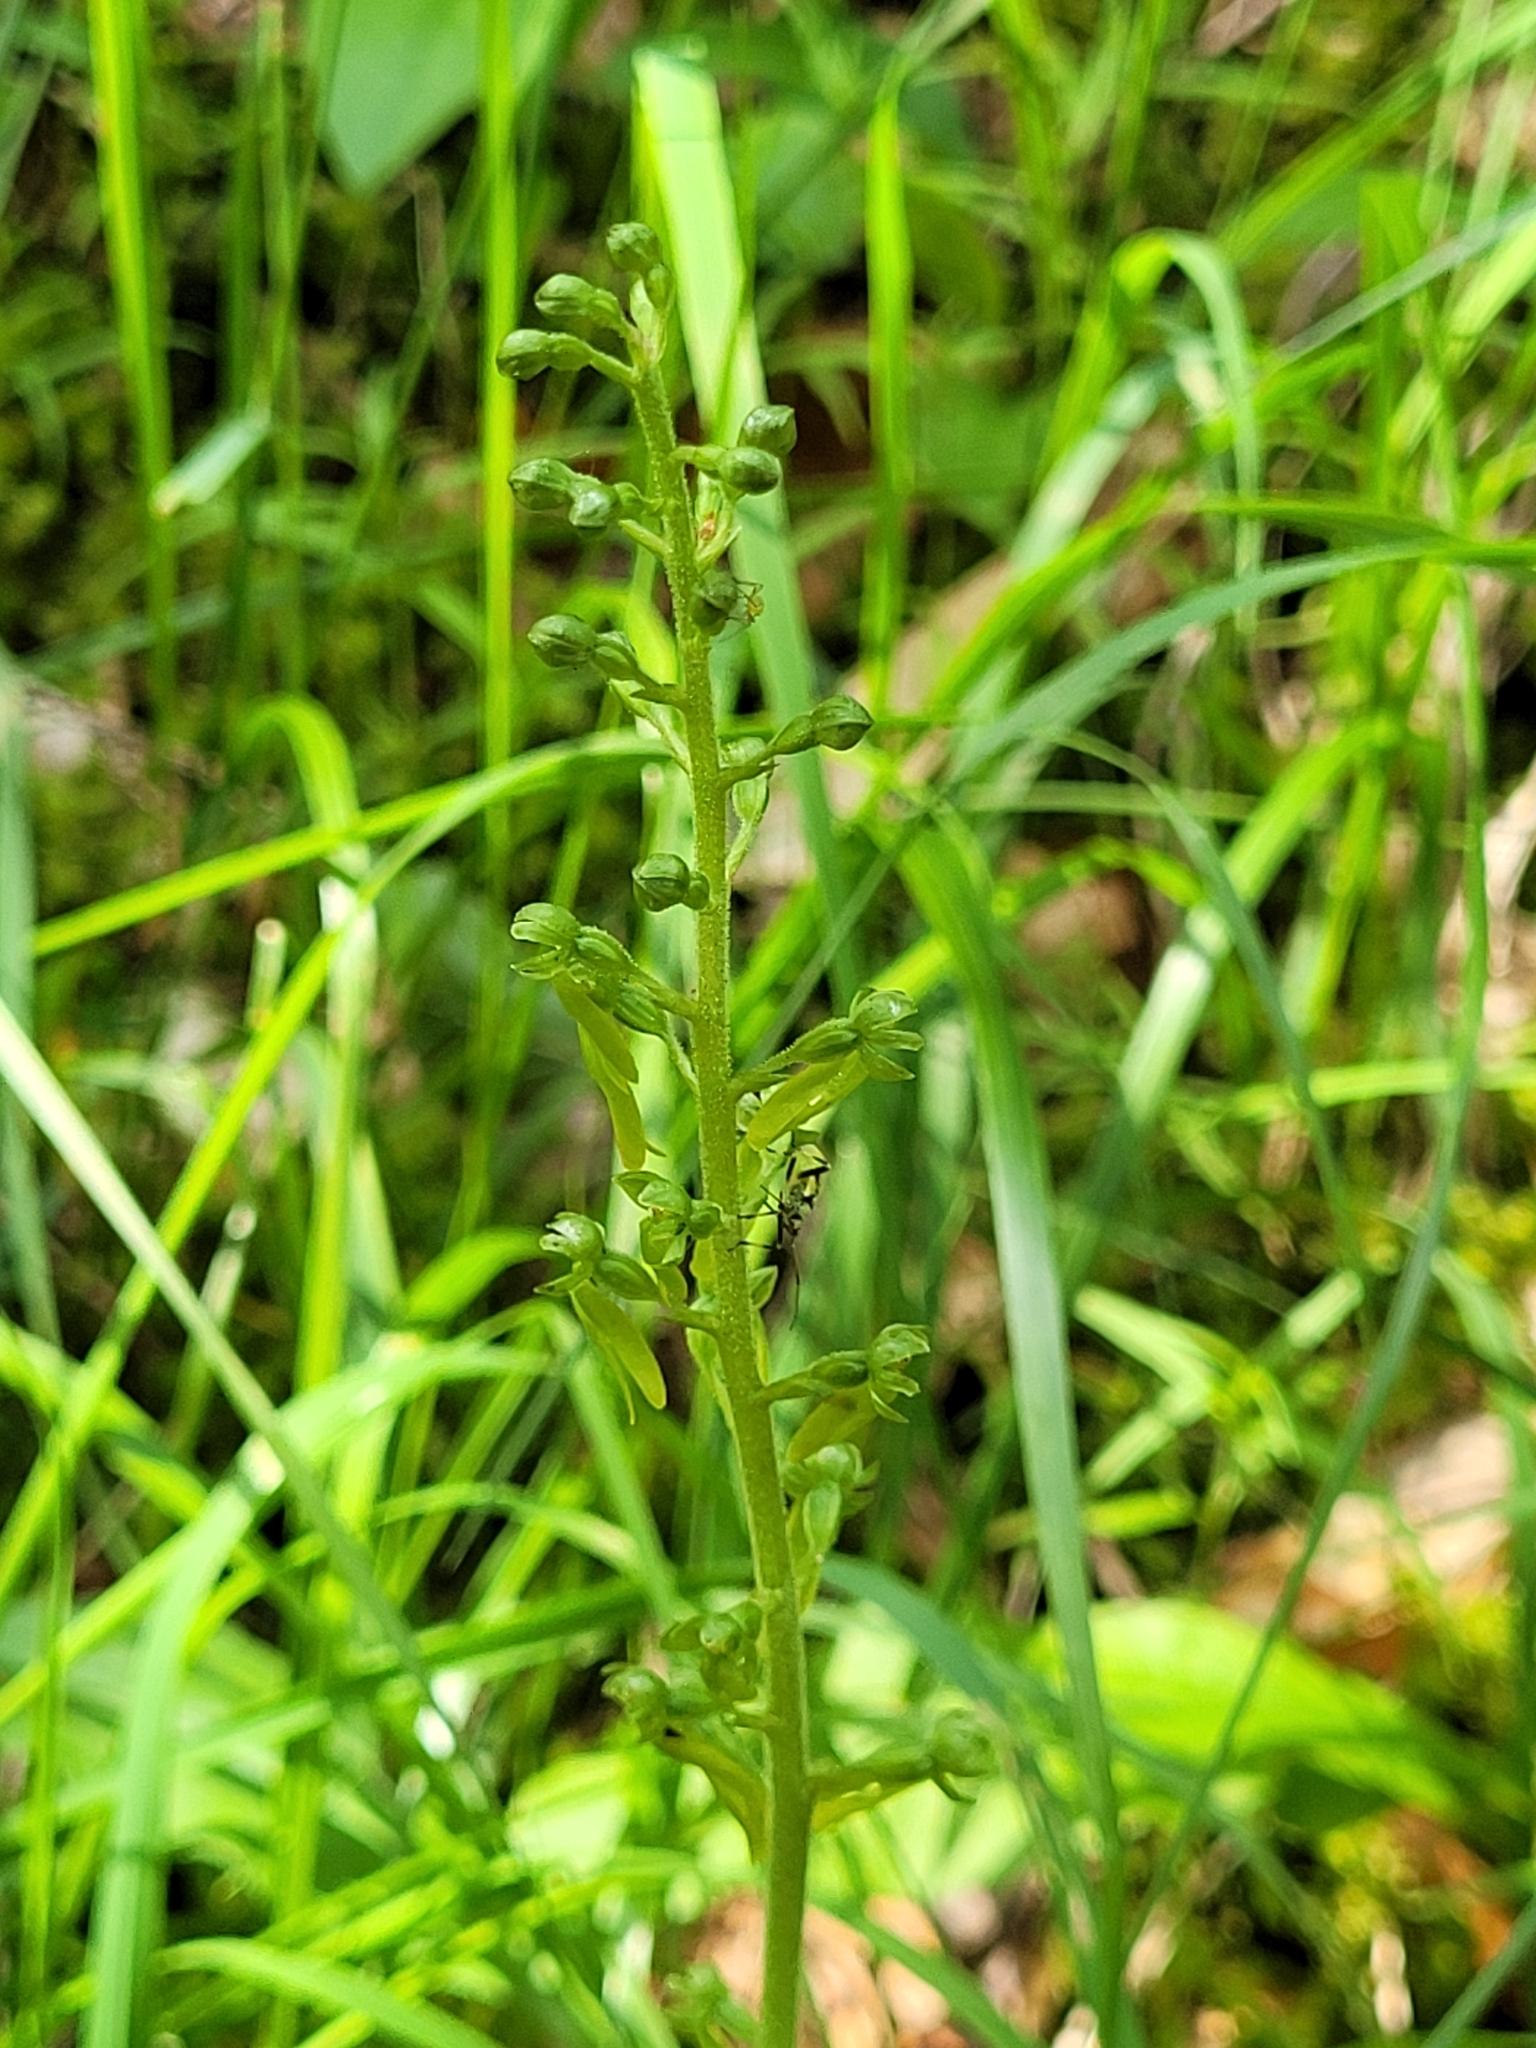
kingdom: Plantae
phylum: Tracheophyta
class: Liliopsida
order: Asparagales
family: Orchidaceae
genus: Neottia
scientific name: Neottia ovata
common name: Common twayblade
